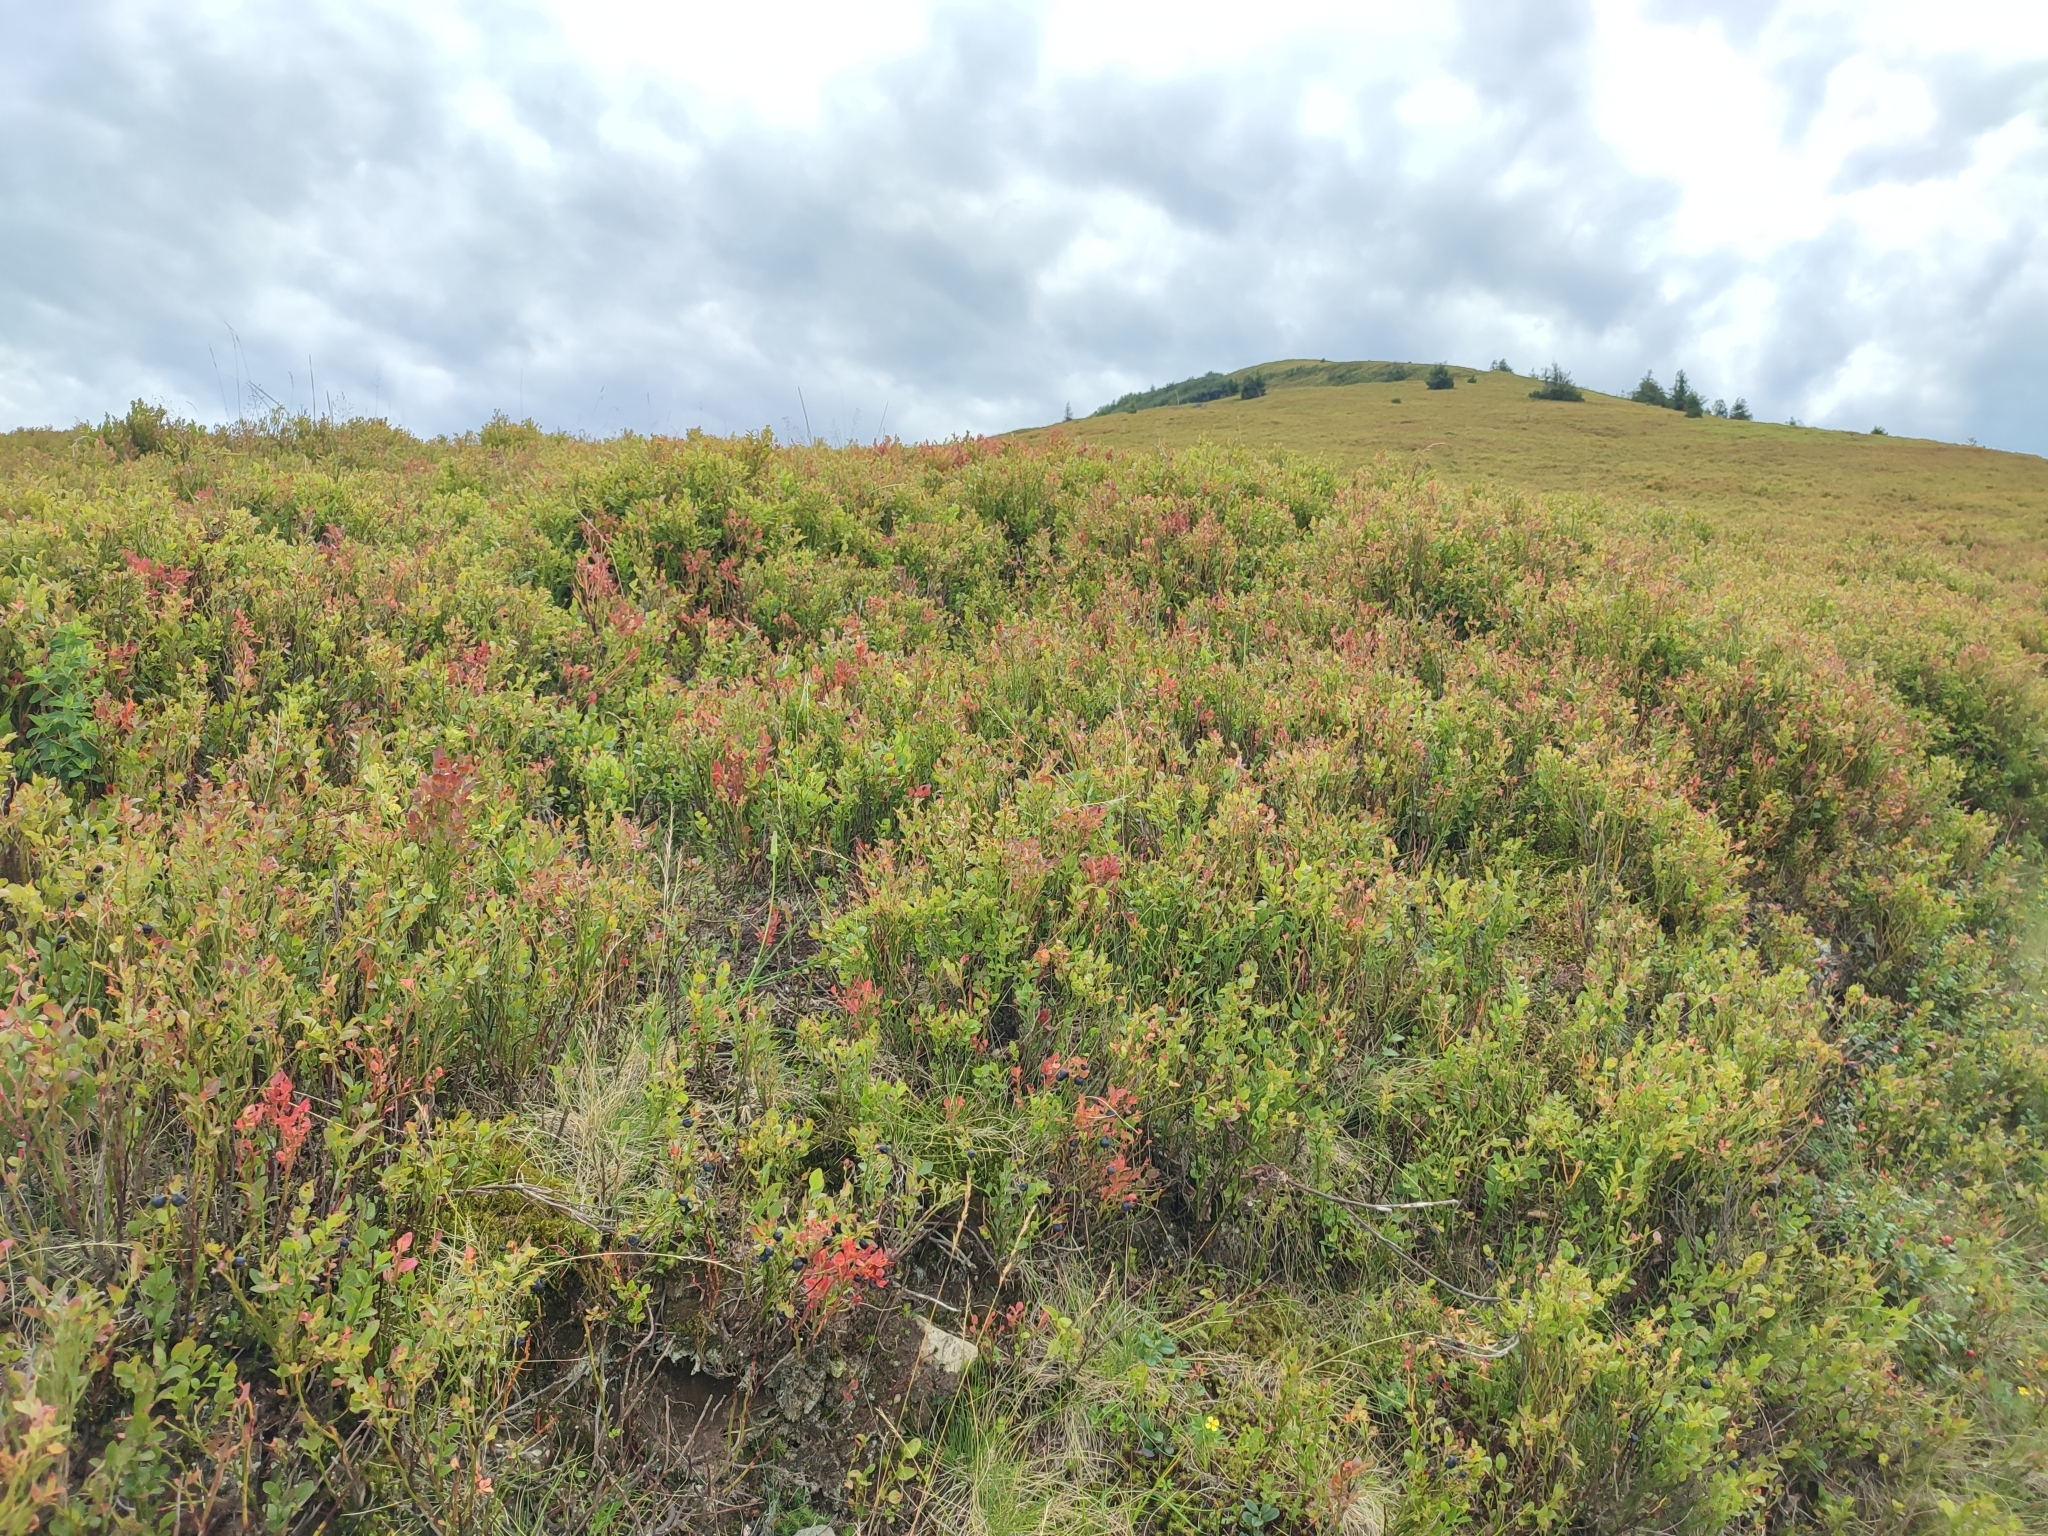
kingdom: Plantae
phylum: Tracheophyta
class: Magnoliopsida
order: Ericales
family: Ericaceae
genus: Vaccinium
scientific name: Vaccinium myrtillus
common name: Bilberry
